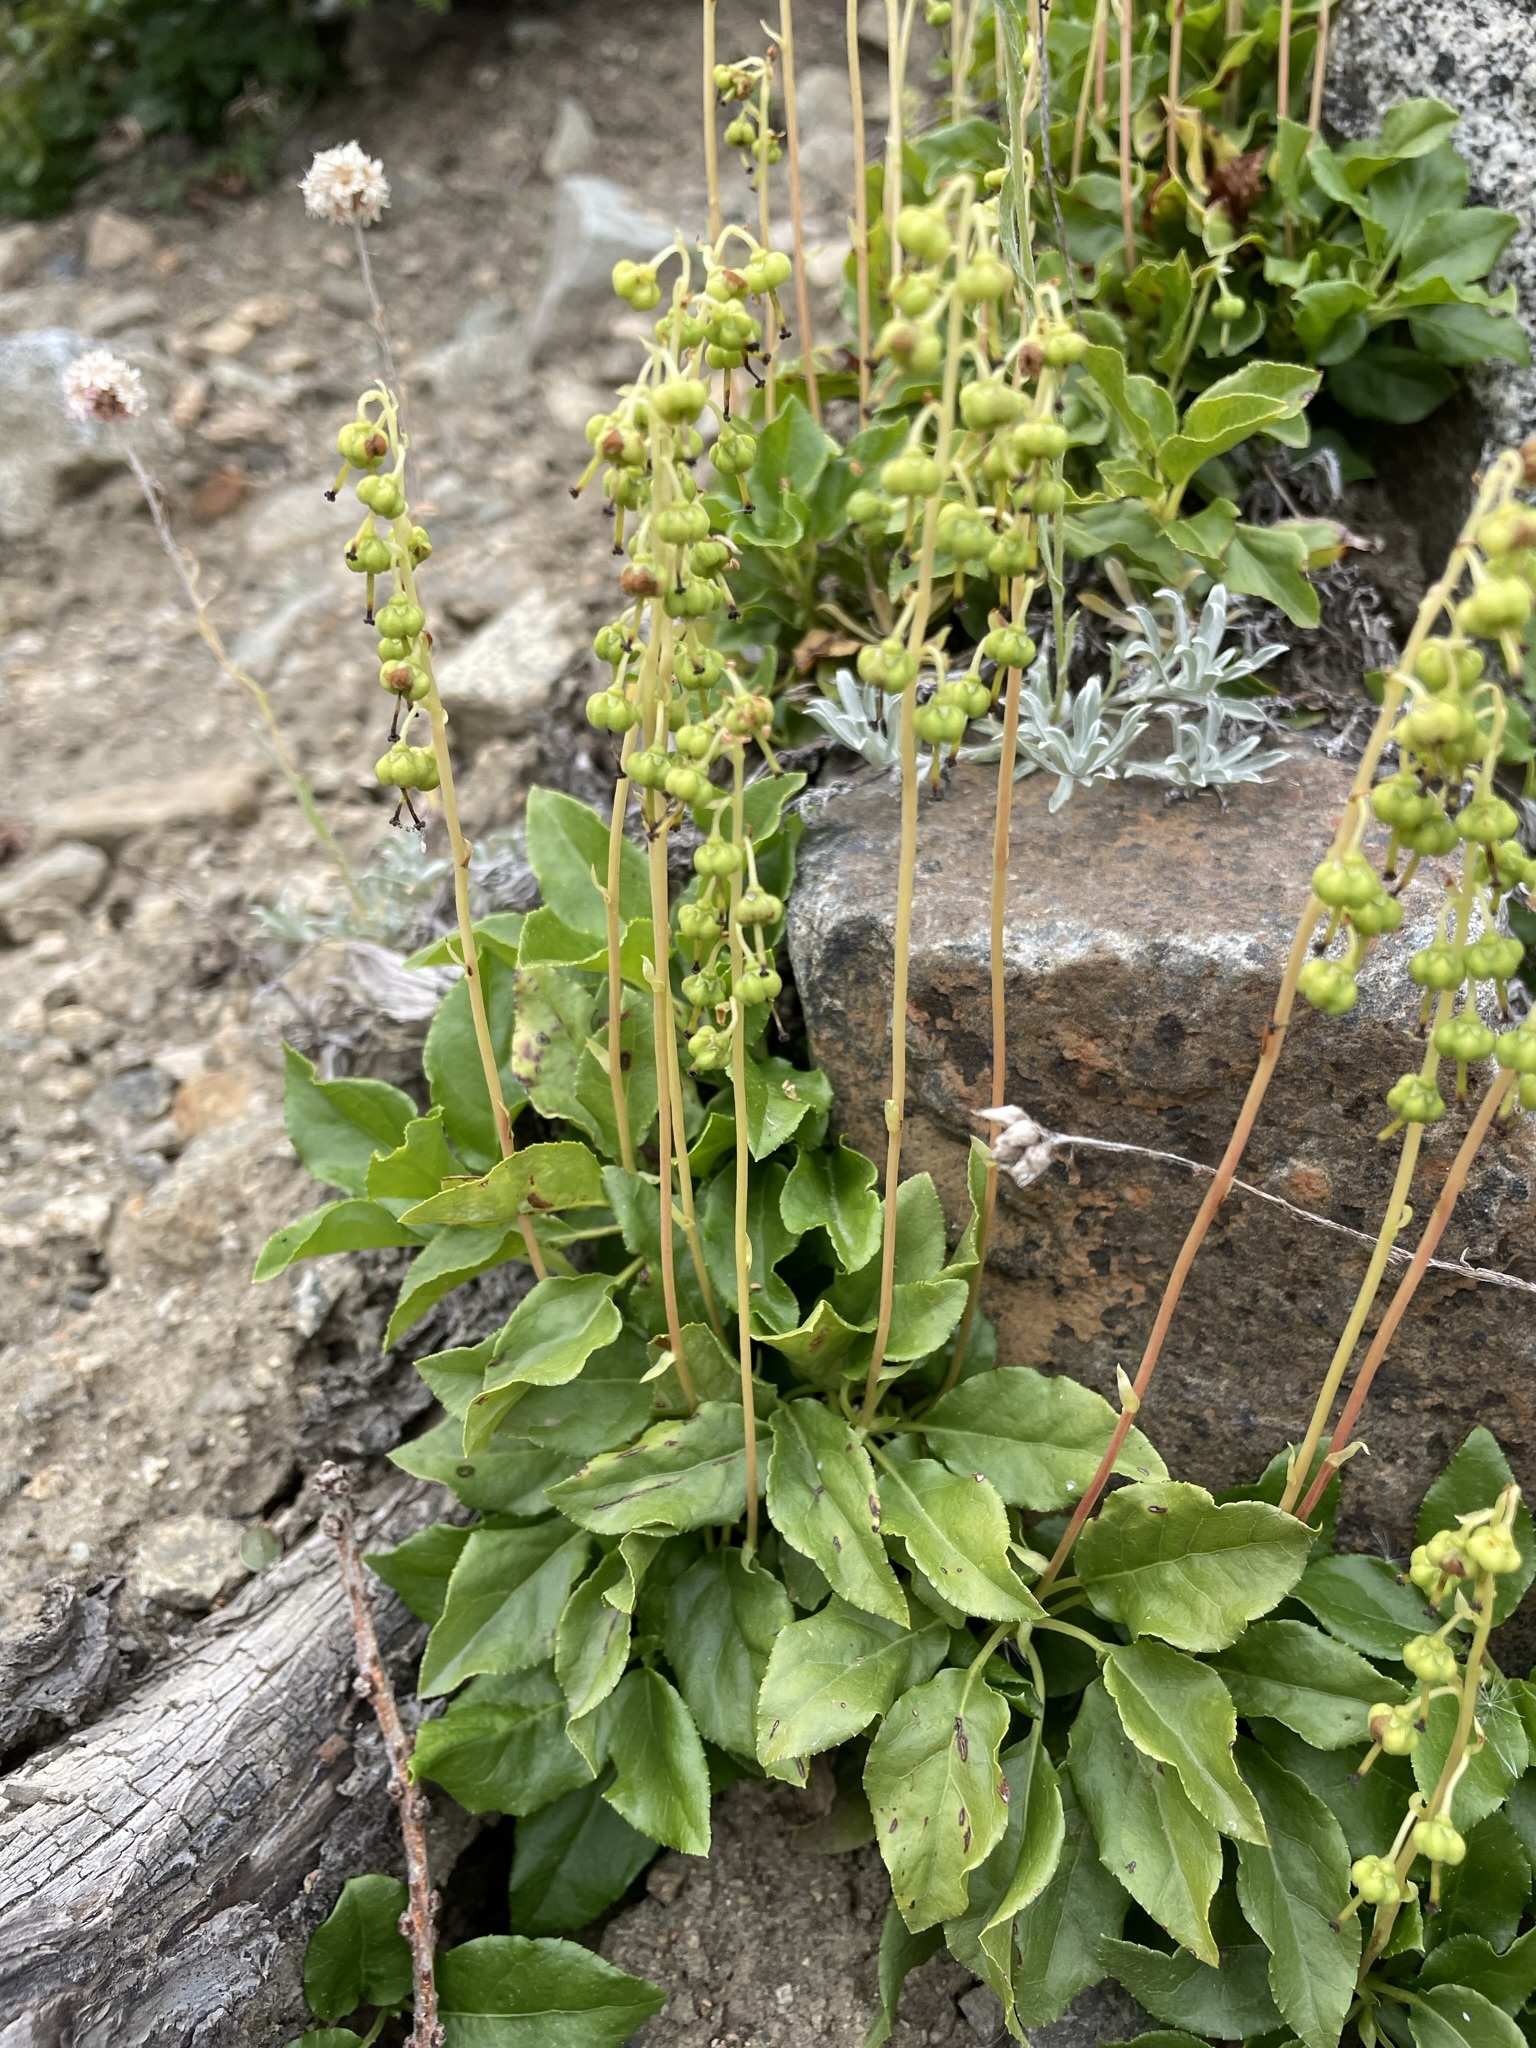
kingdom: Plantae
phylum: Tracheophyta
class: Magnoliopsida
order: Ericales
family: Ericaceae
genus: Orthilia
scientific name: Orthilia secunda
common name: One-sided orthilia
